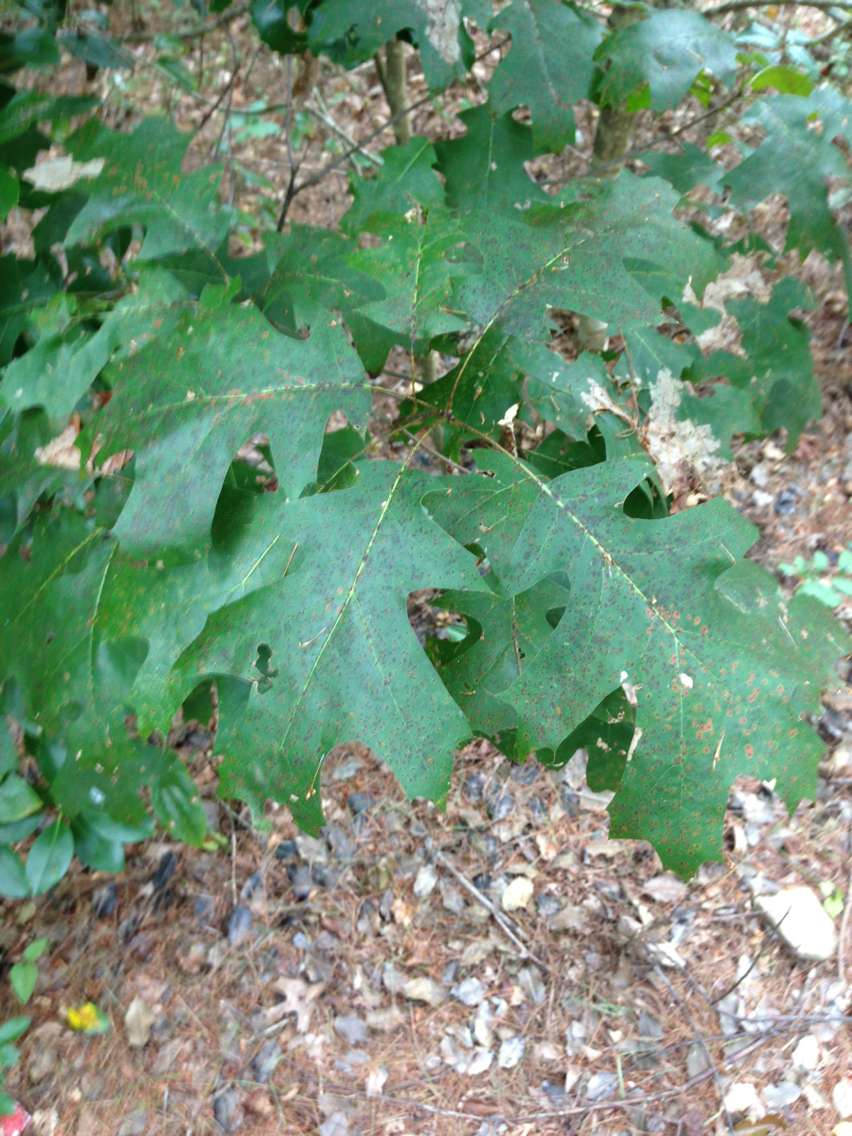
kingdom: Plantae
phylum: Tracheophyta
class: Magnoliopsida
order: Fagales
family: Fagaceae
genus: Quercus
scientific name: Quercus rubra
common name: Red oak
